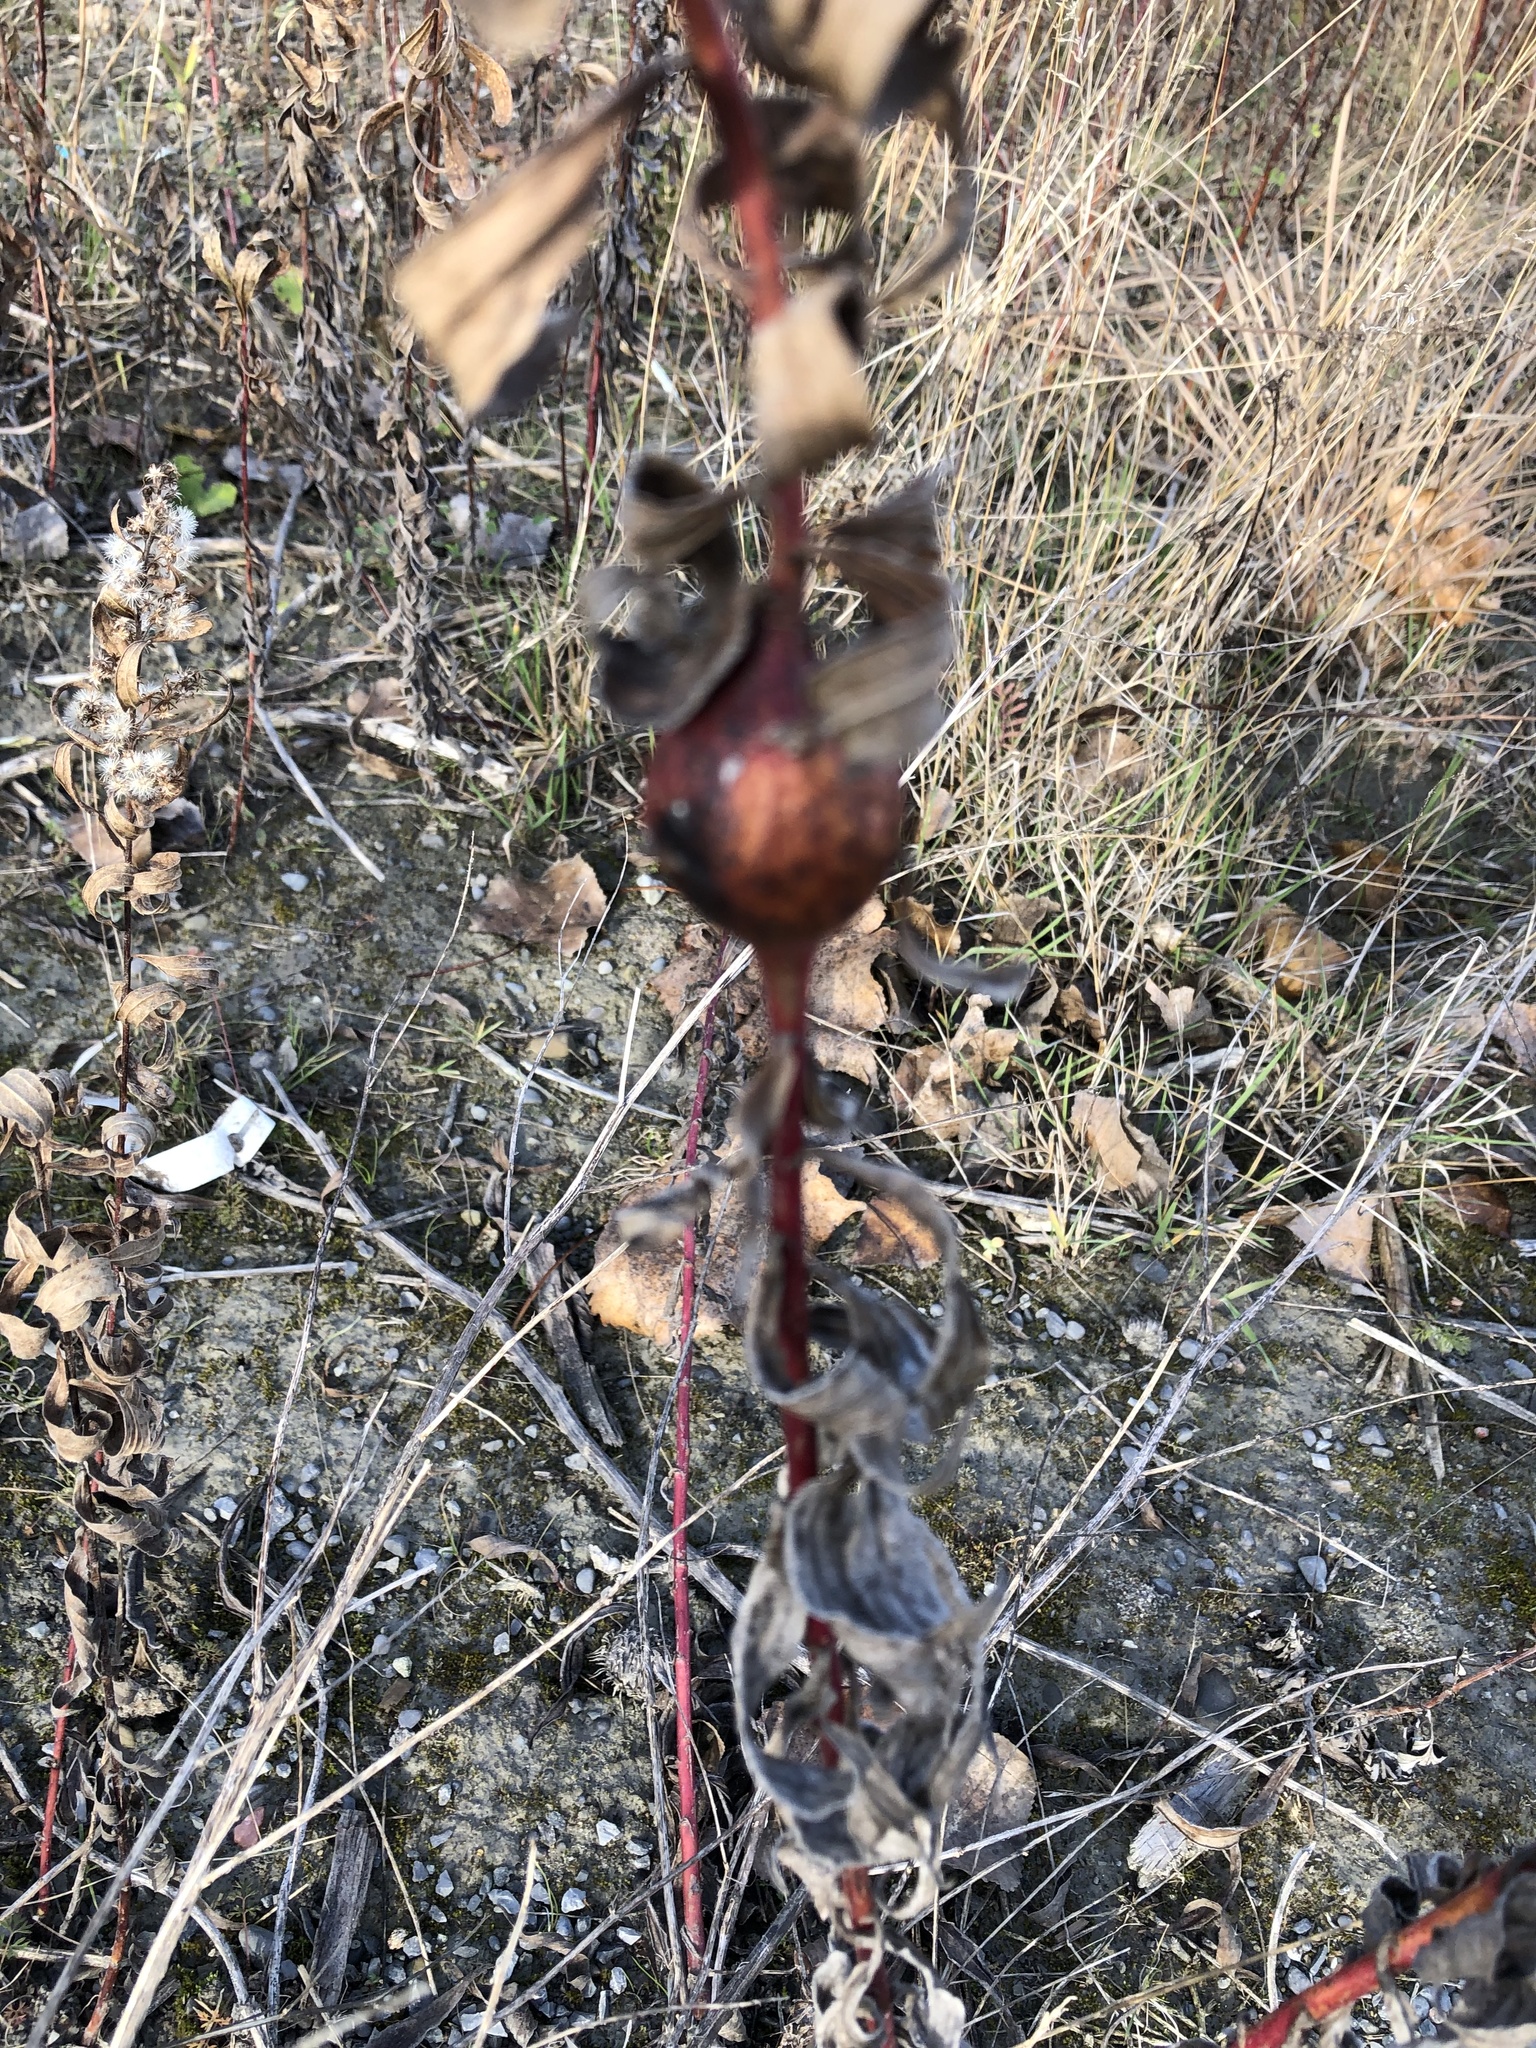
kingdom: Animalia
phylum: Arthropoda
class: Insecta
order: Diptera
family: Tephritidae
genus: Eurosta
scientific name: Eurosta solidaginis
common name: Goldenrod gall fly
